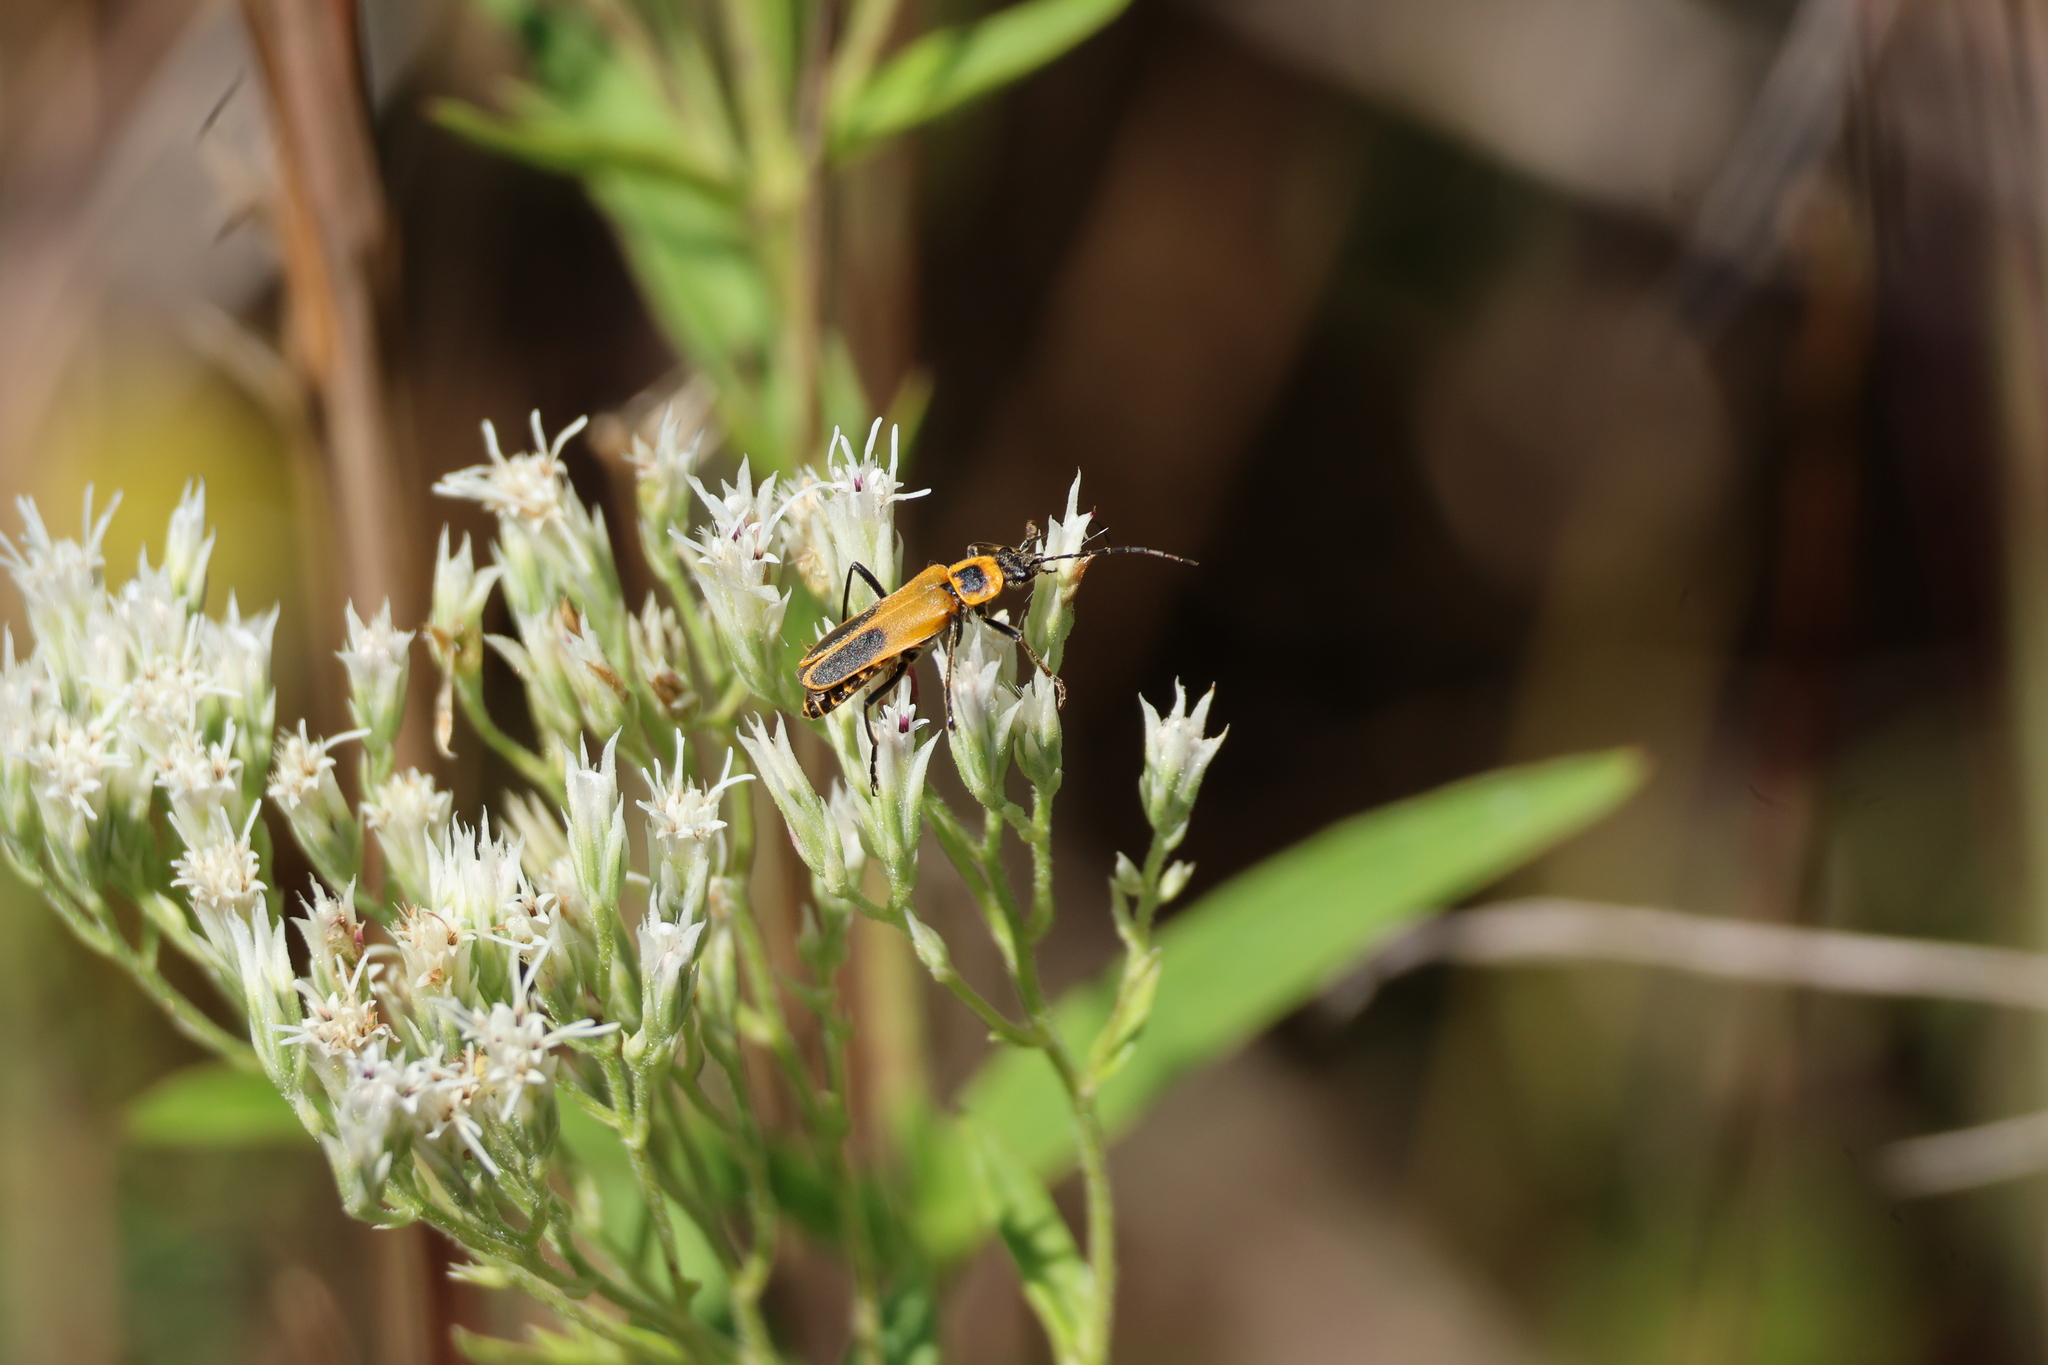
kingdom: Animalia
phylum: Arthropoda
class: Insecta
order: Coleoptera
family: Cantharidae
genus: Chauliognathus
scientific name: Chauliognathus pensylvanicus
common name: Goldenrod soldier beetle
